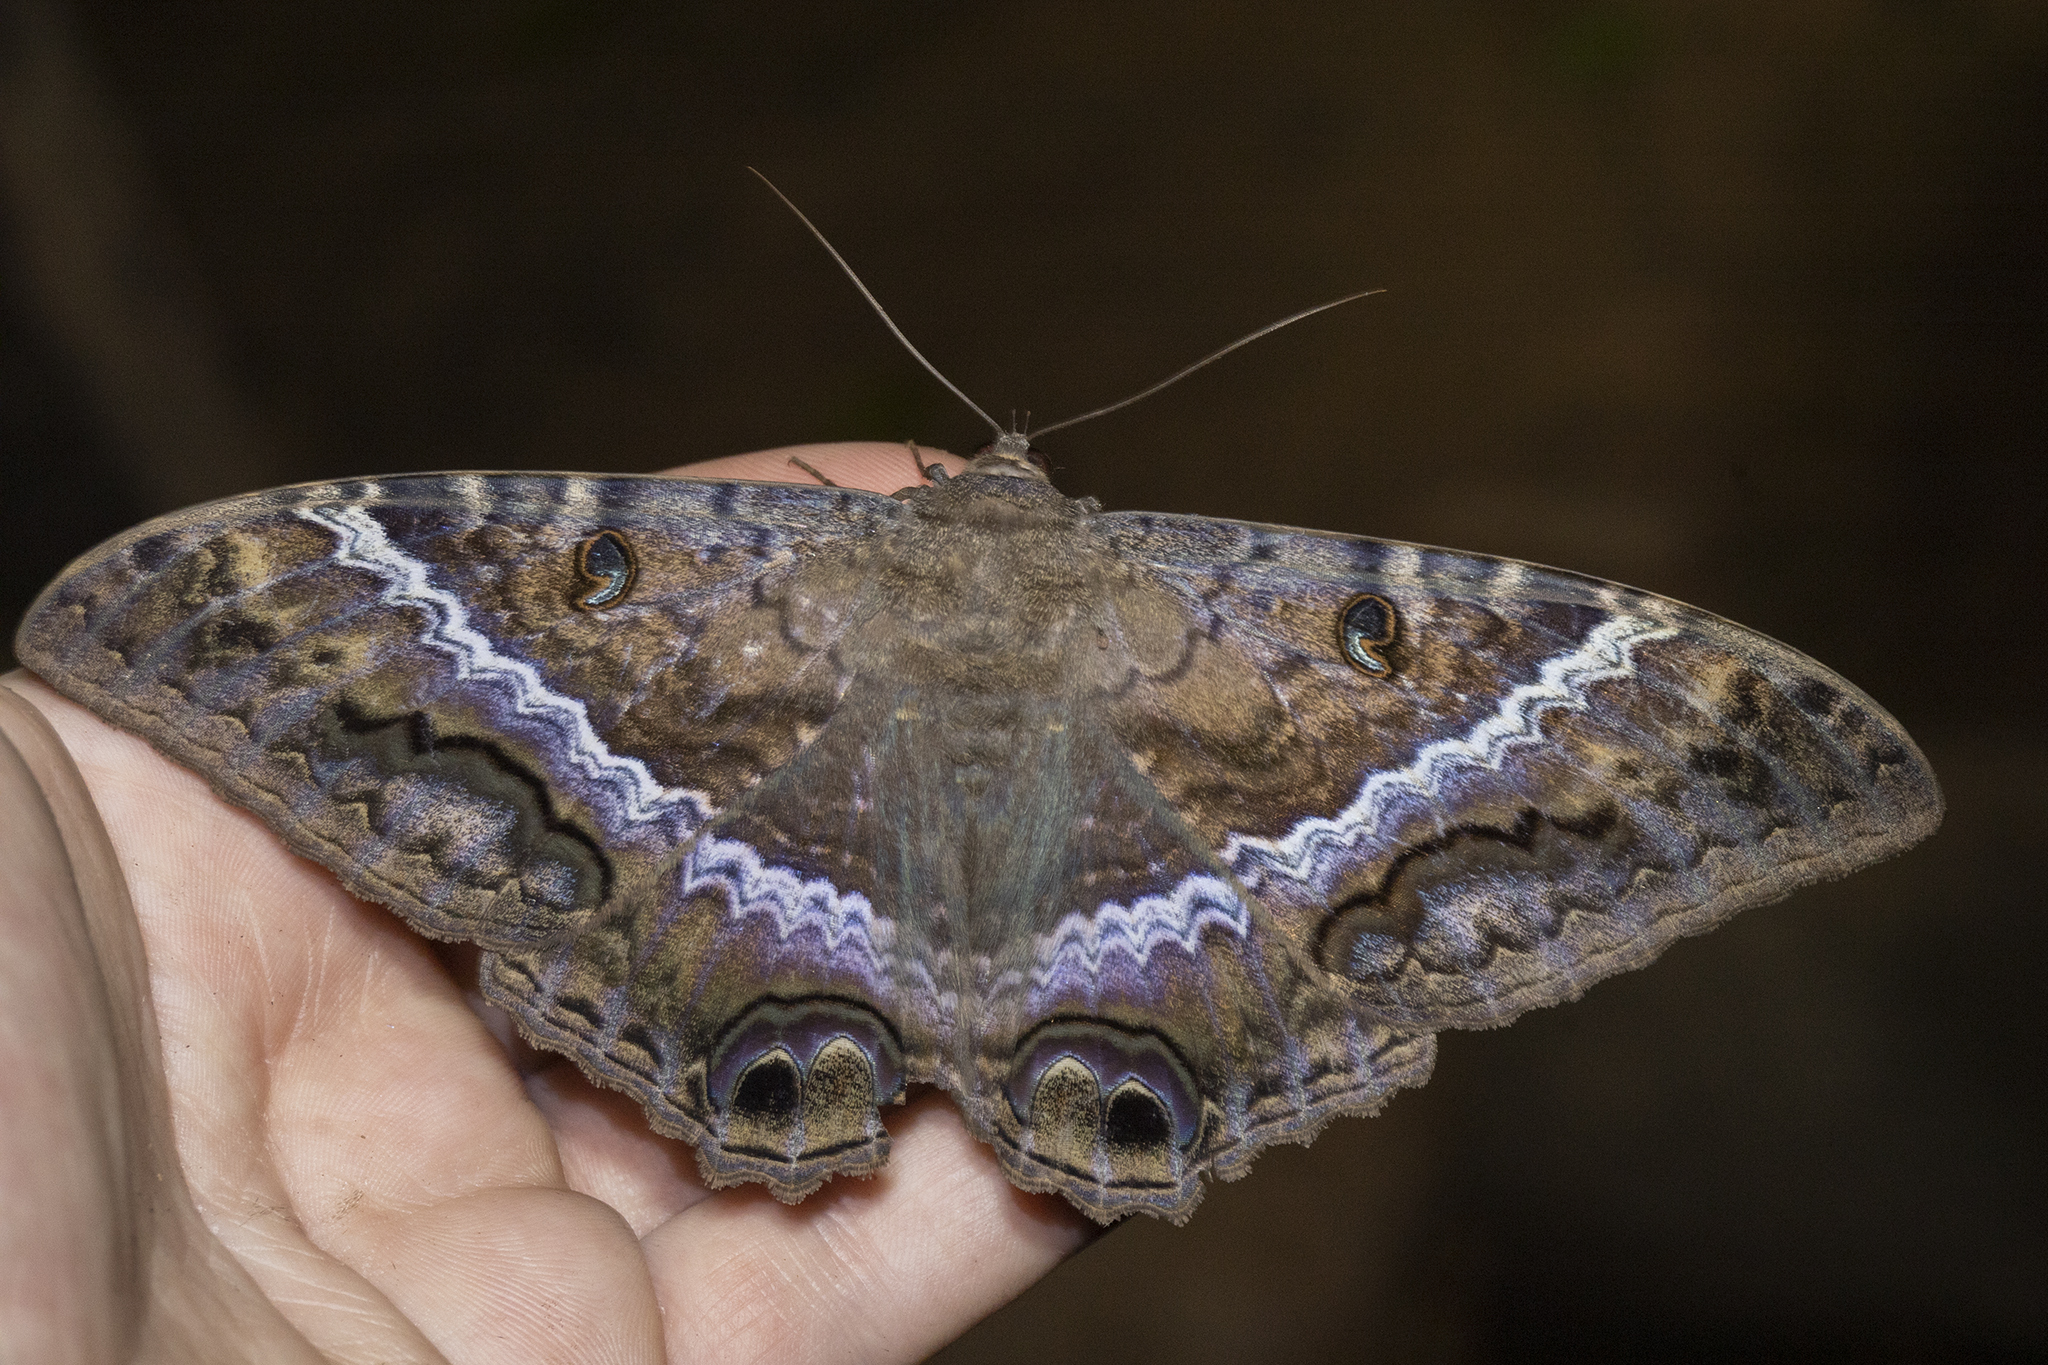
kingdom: Animalia
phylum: Arthropoda
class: Insecta
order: Lepidoptera
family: Erebidae
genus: Ascalapha
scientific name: Ascalapha odorata
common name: Black witch
